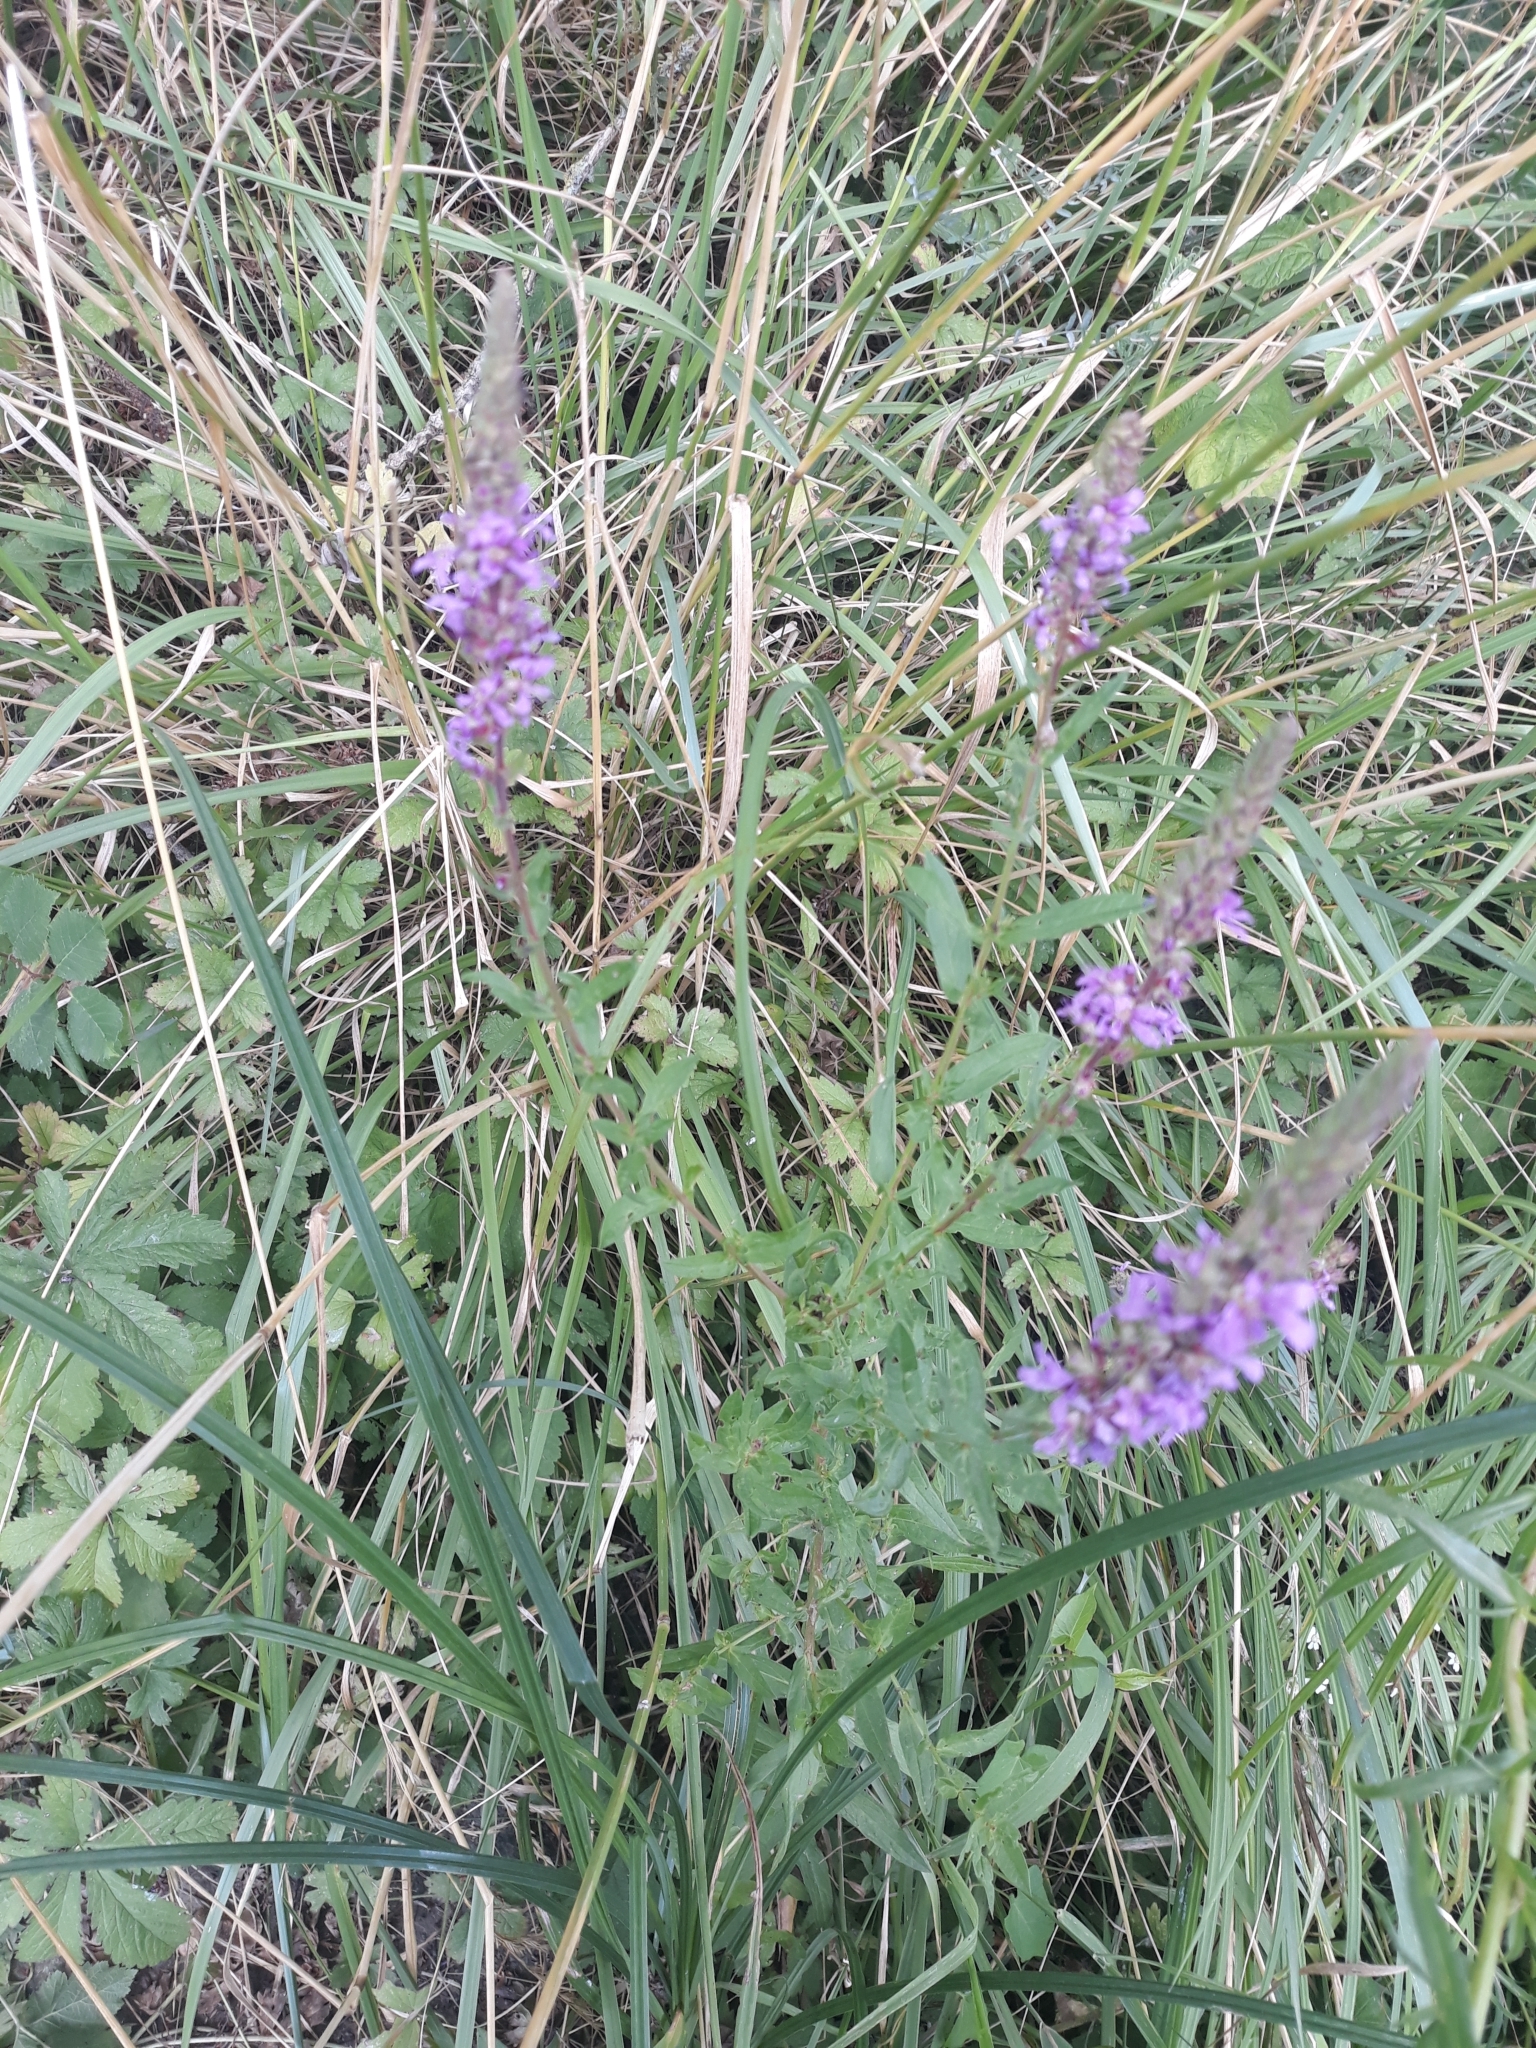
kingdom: Plantae
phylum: Tracheophyta
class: Magnoliopsida
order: Myrtales
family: Lythraceae
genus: Lythrum
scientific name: Lythrum salicaria
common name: Purple loosestrife
